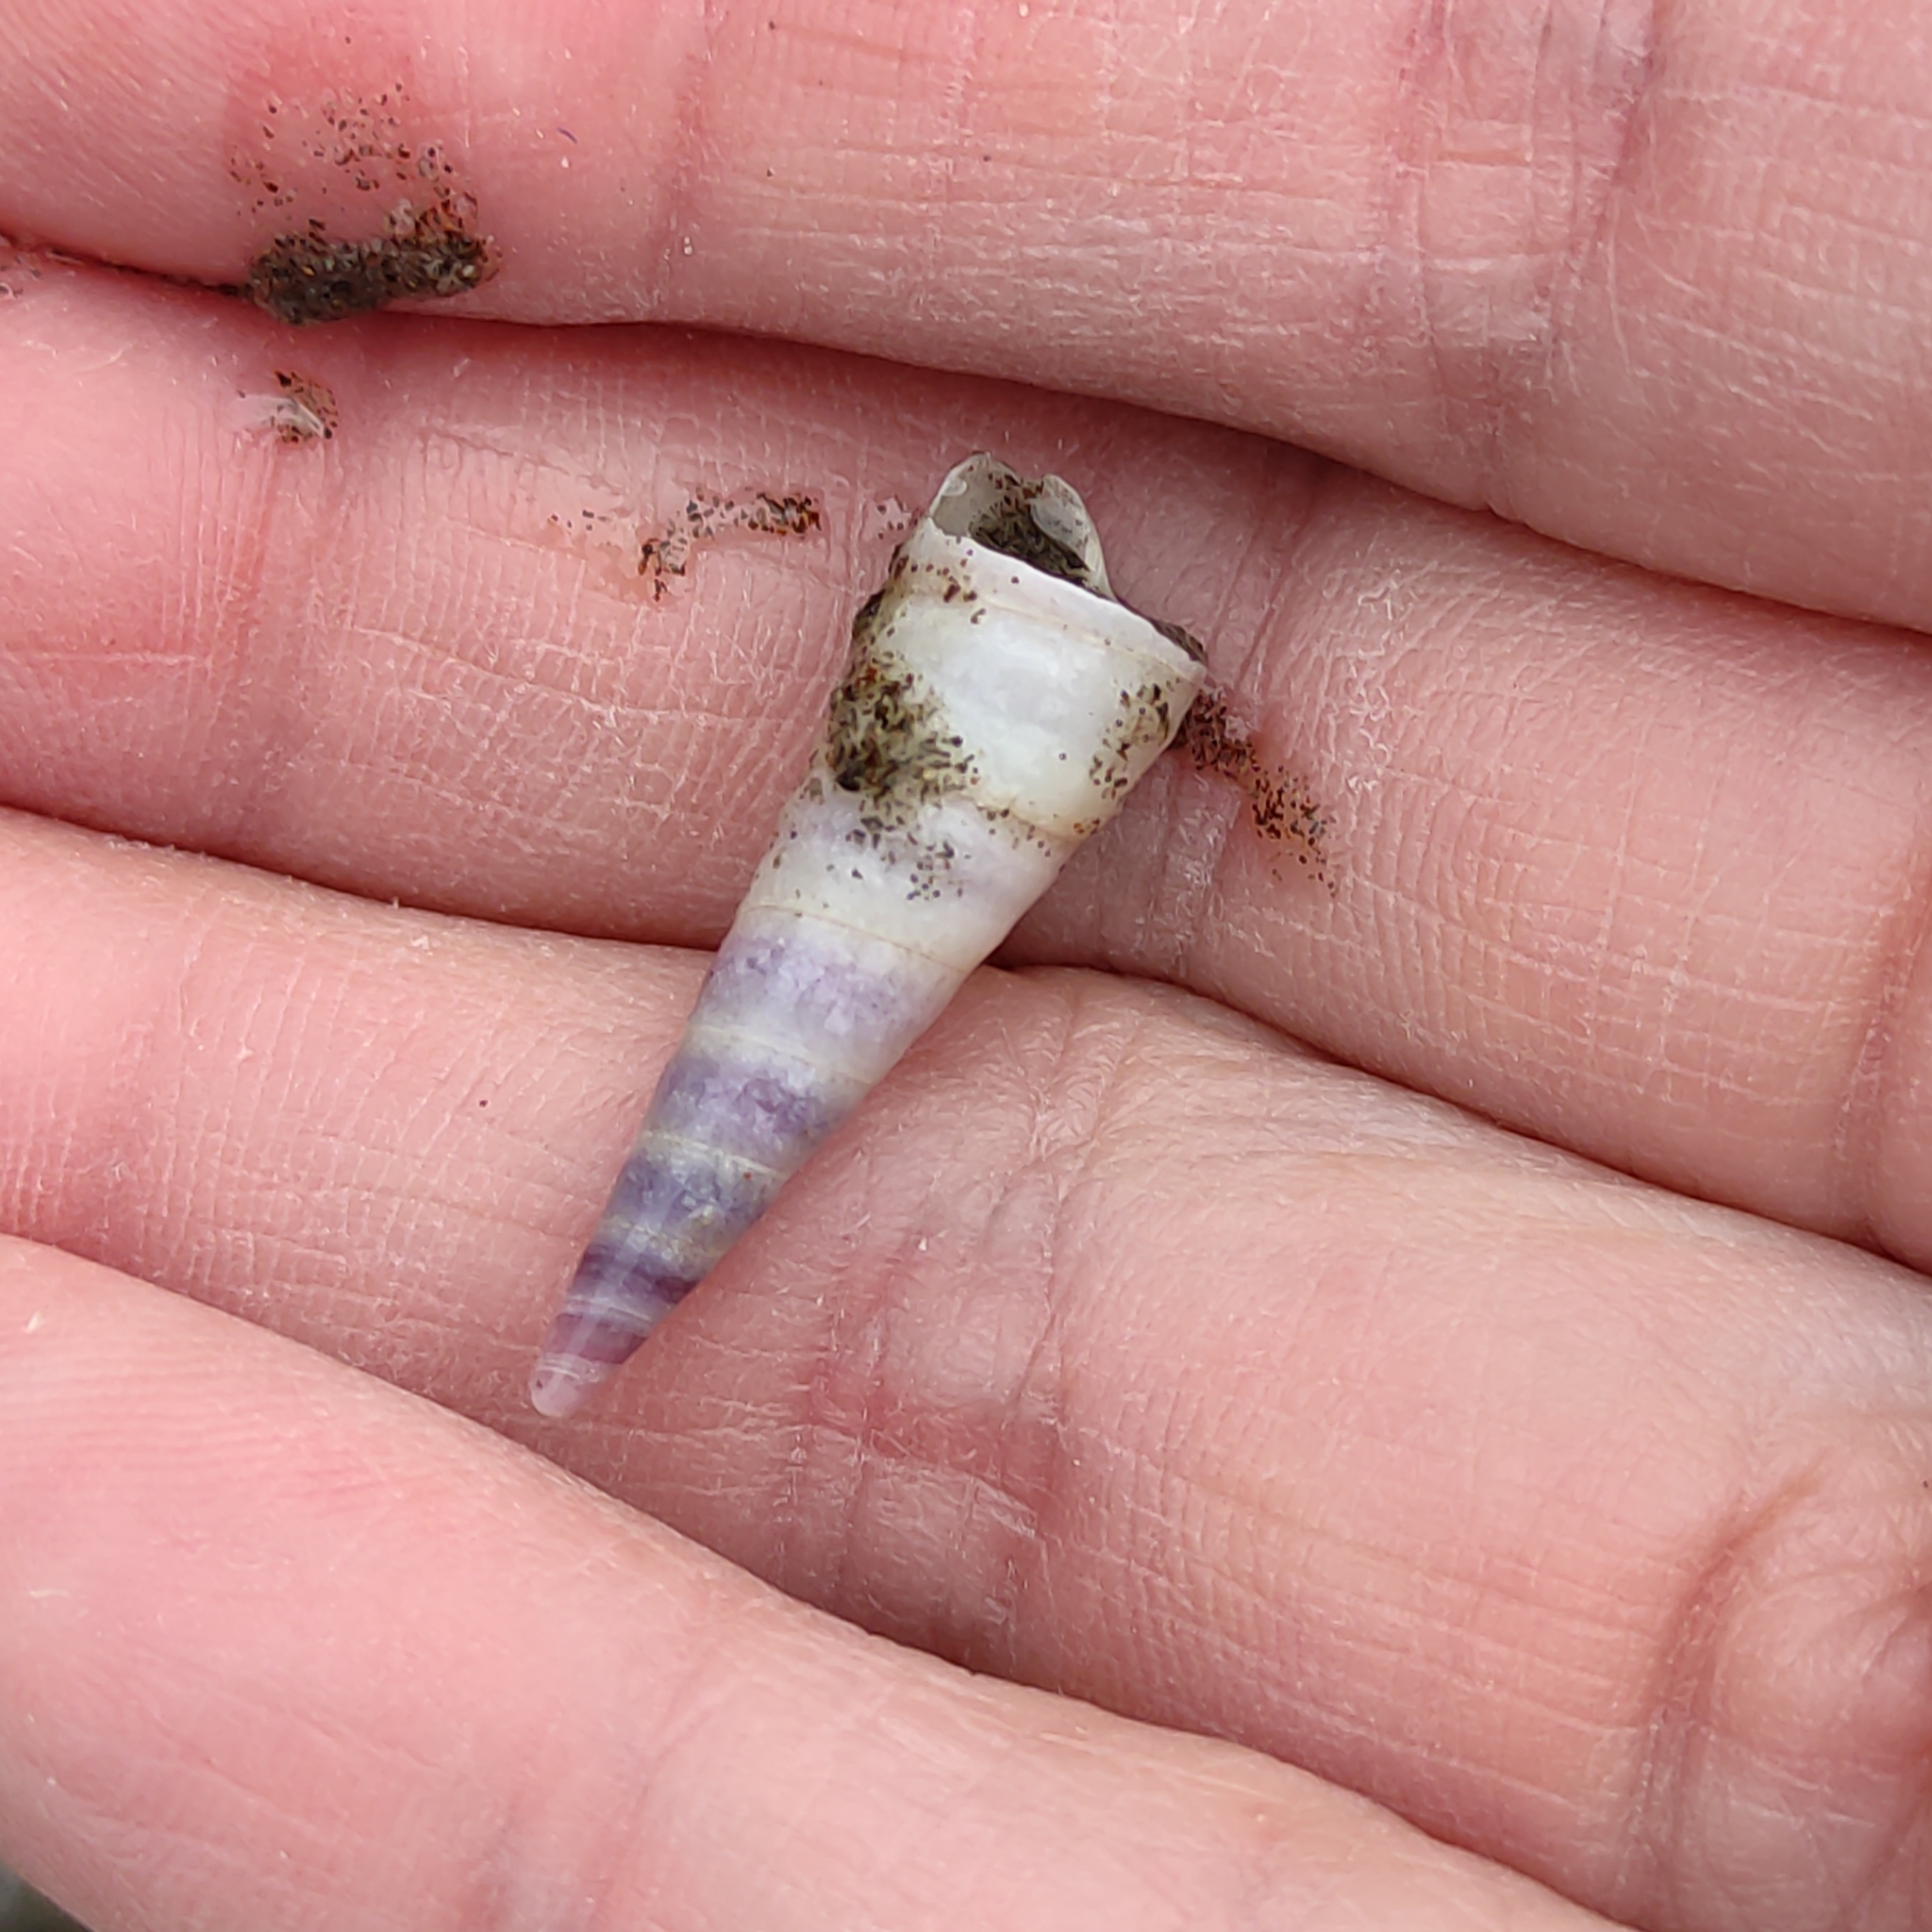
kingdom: Animalia
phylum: Mollusca
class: Gastropoda
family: Turritellidae
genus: Maoricolpus
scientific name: Maoricolpus roseus
